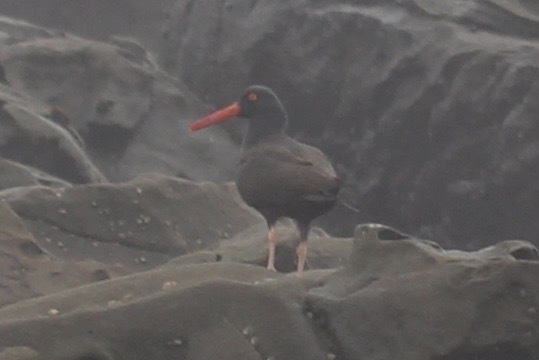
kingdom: Animalia
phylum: Chordata
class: Aves
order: Charadriiformes
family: Haematopodidae
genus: Haematopus
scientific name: Haematopus bachmani
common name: Black oystercatcher
